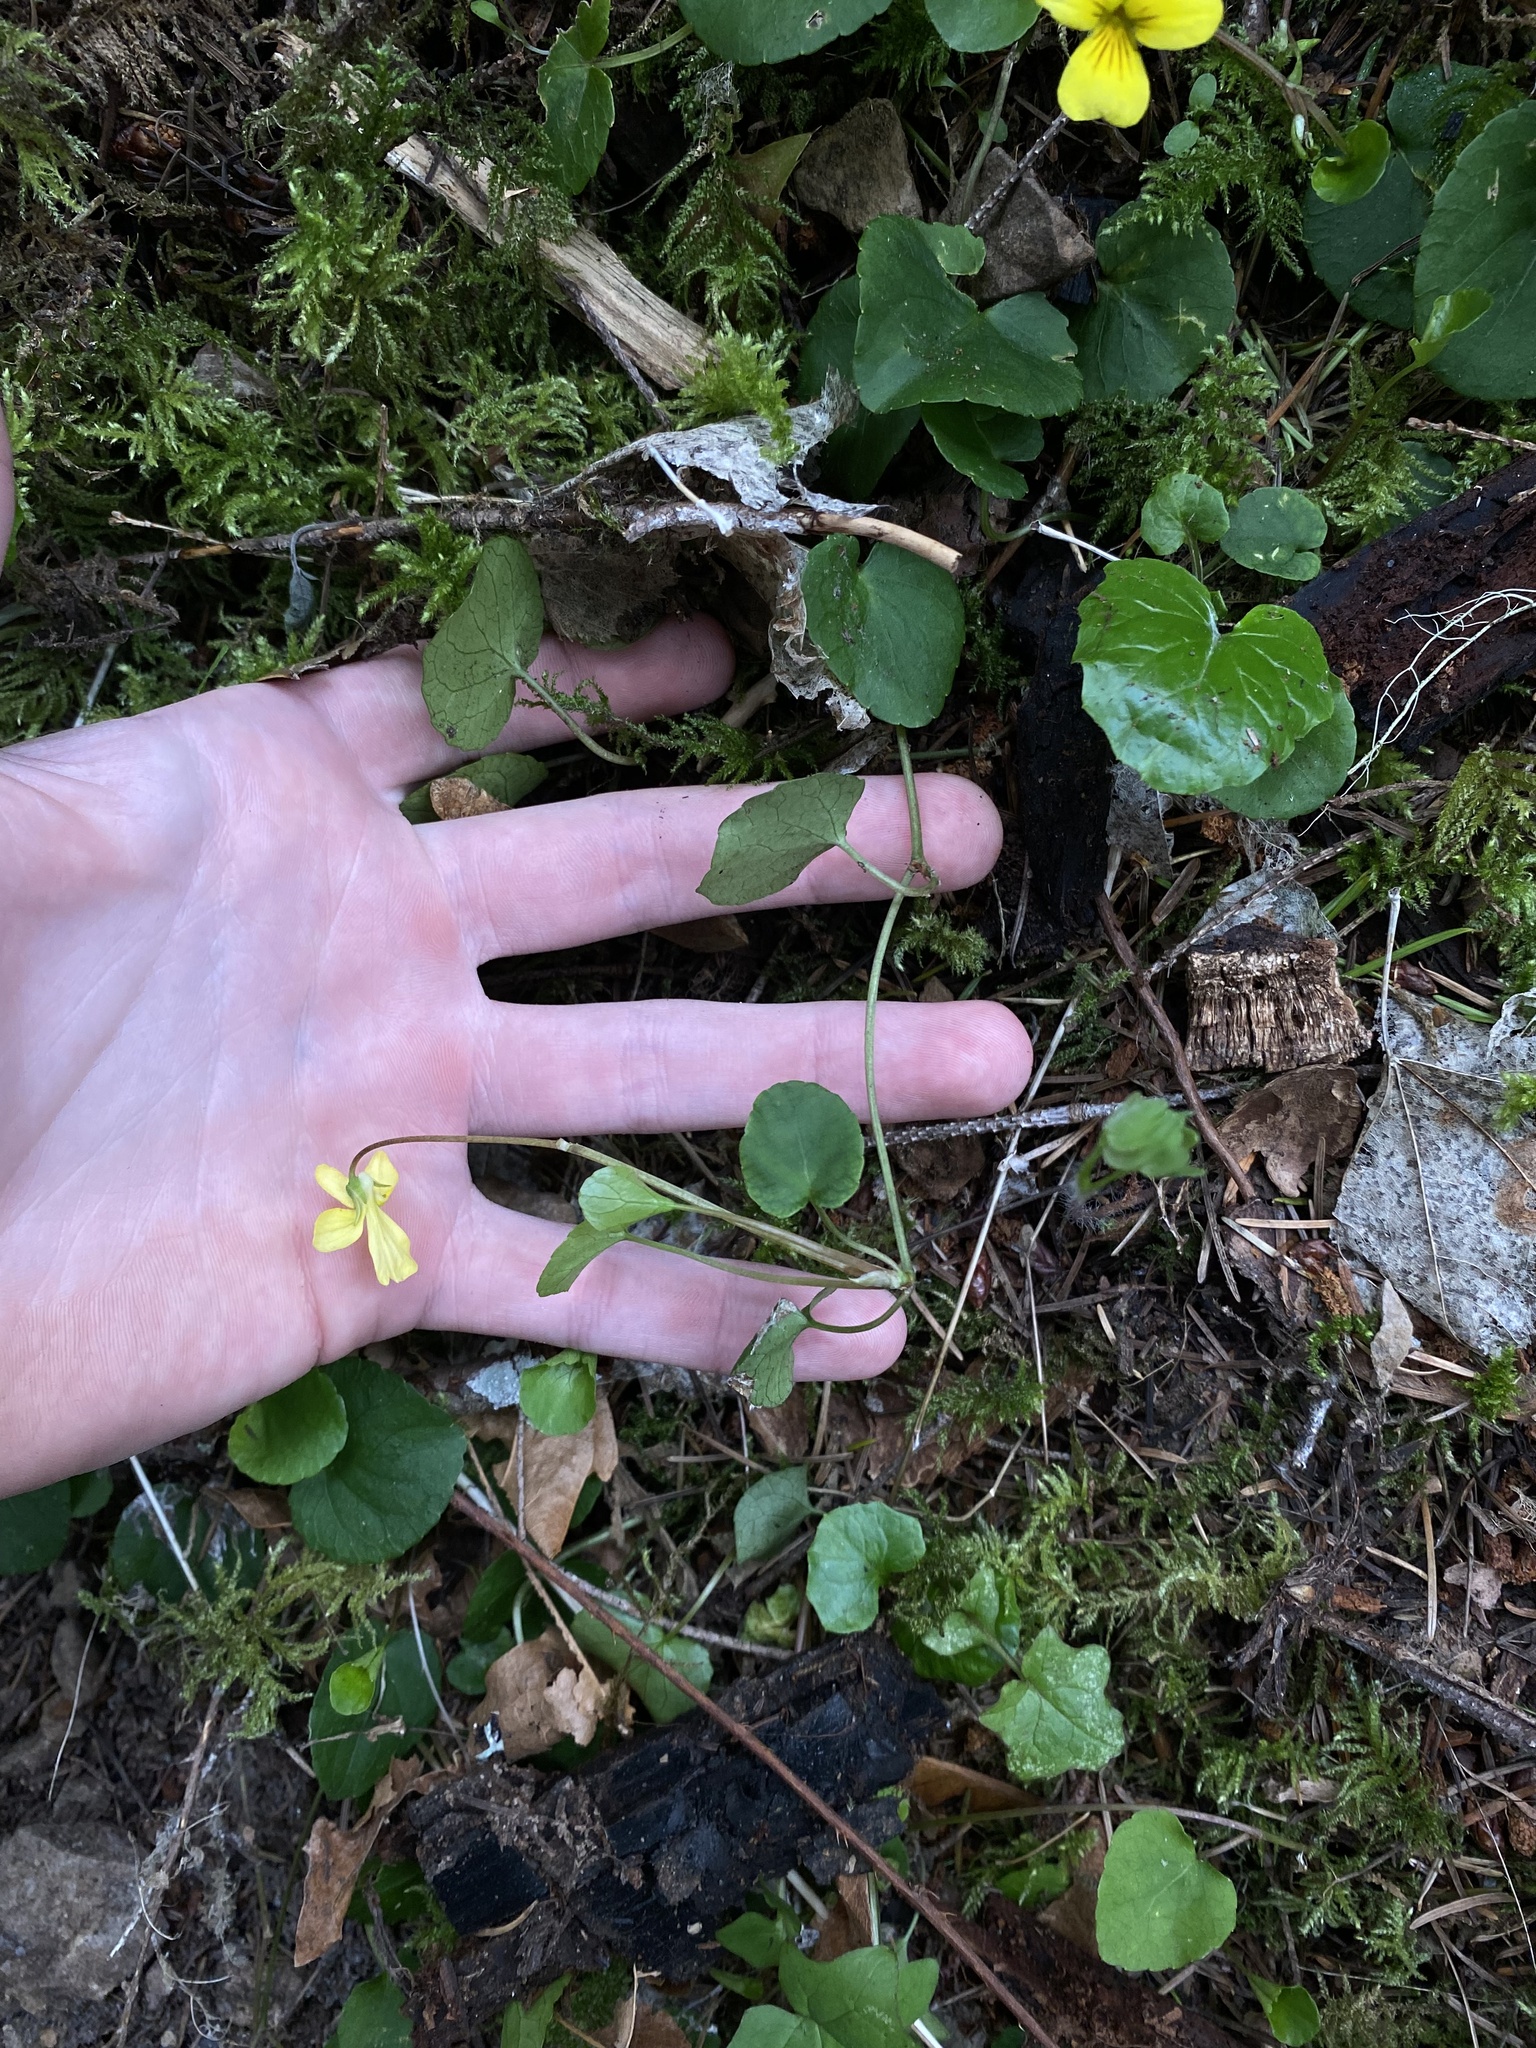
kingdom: Plantae
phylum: Tracheophyta
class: Magnoliopsida
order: Malpighiales
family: Violaceae
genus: Viola
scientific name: Viola sempervirens
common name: Evergreen violet
